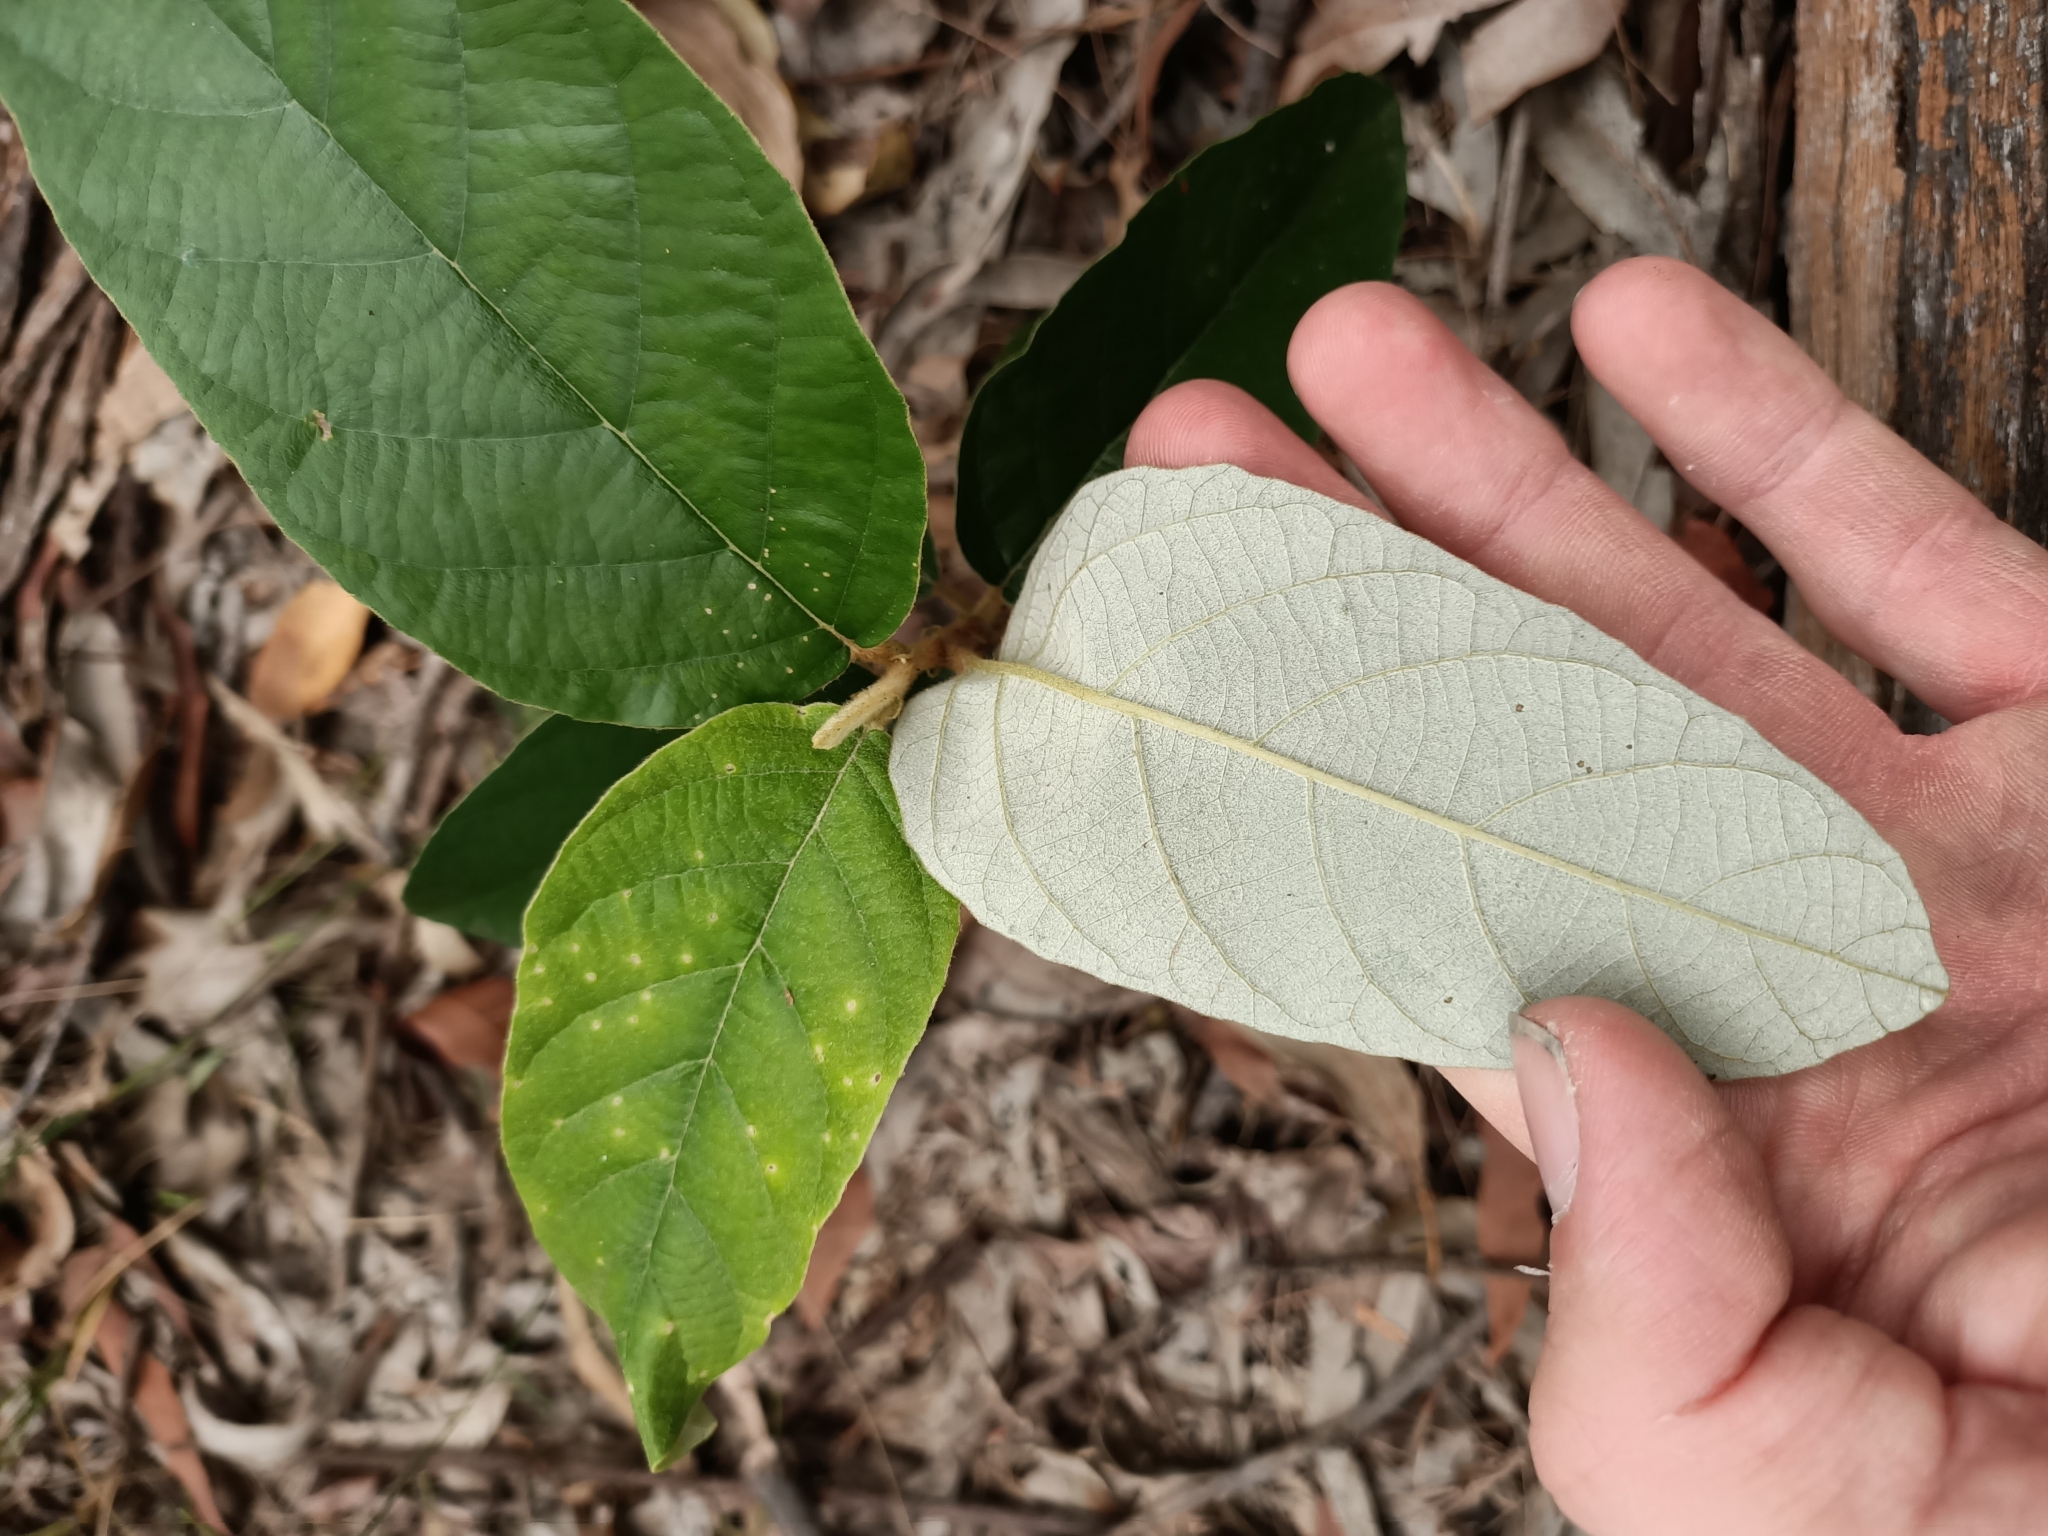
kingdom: Plantae
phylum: Tracheophyta
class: Magnoliopsida
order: Rosales
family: Rhamnaceae
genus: Alphitonia
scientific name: Alphitonia excelsa
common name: Red ash
